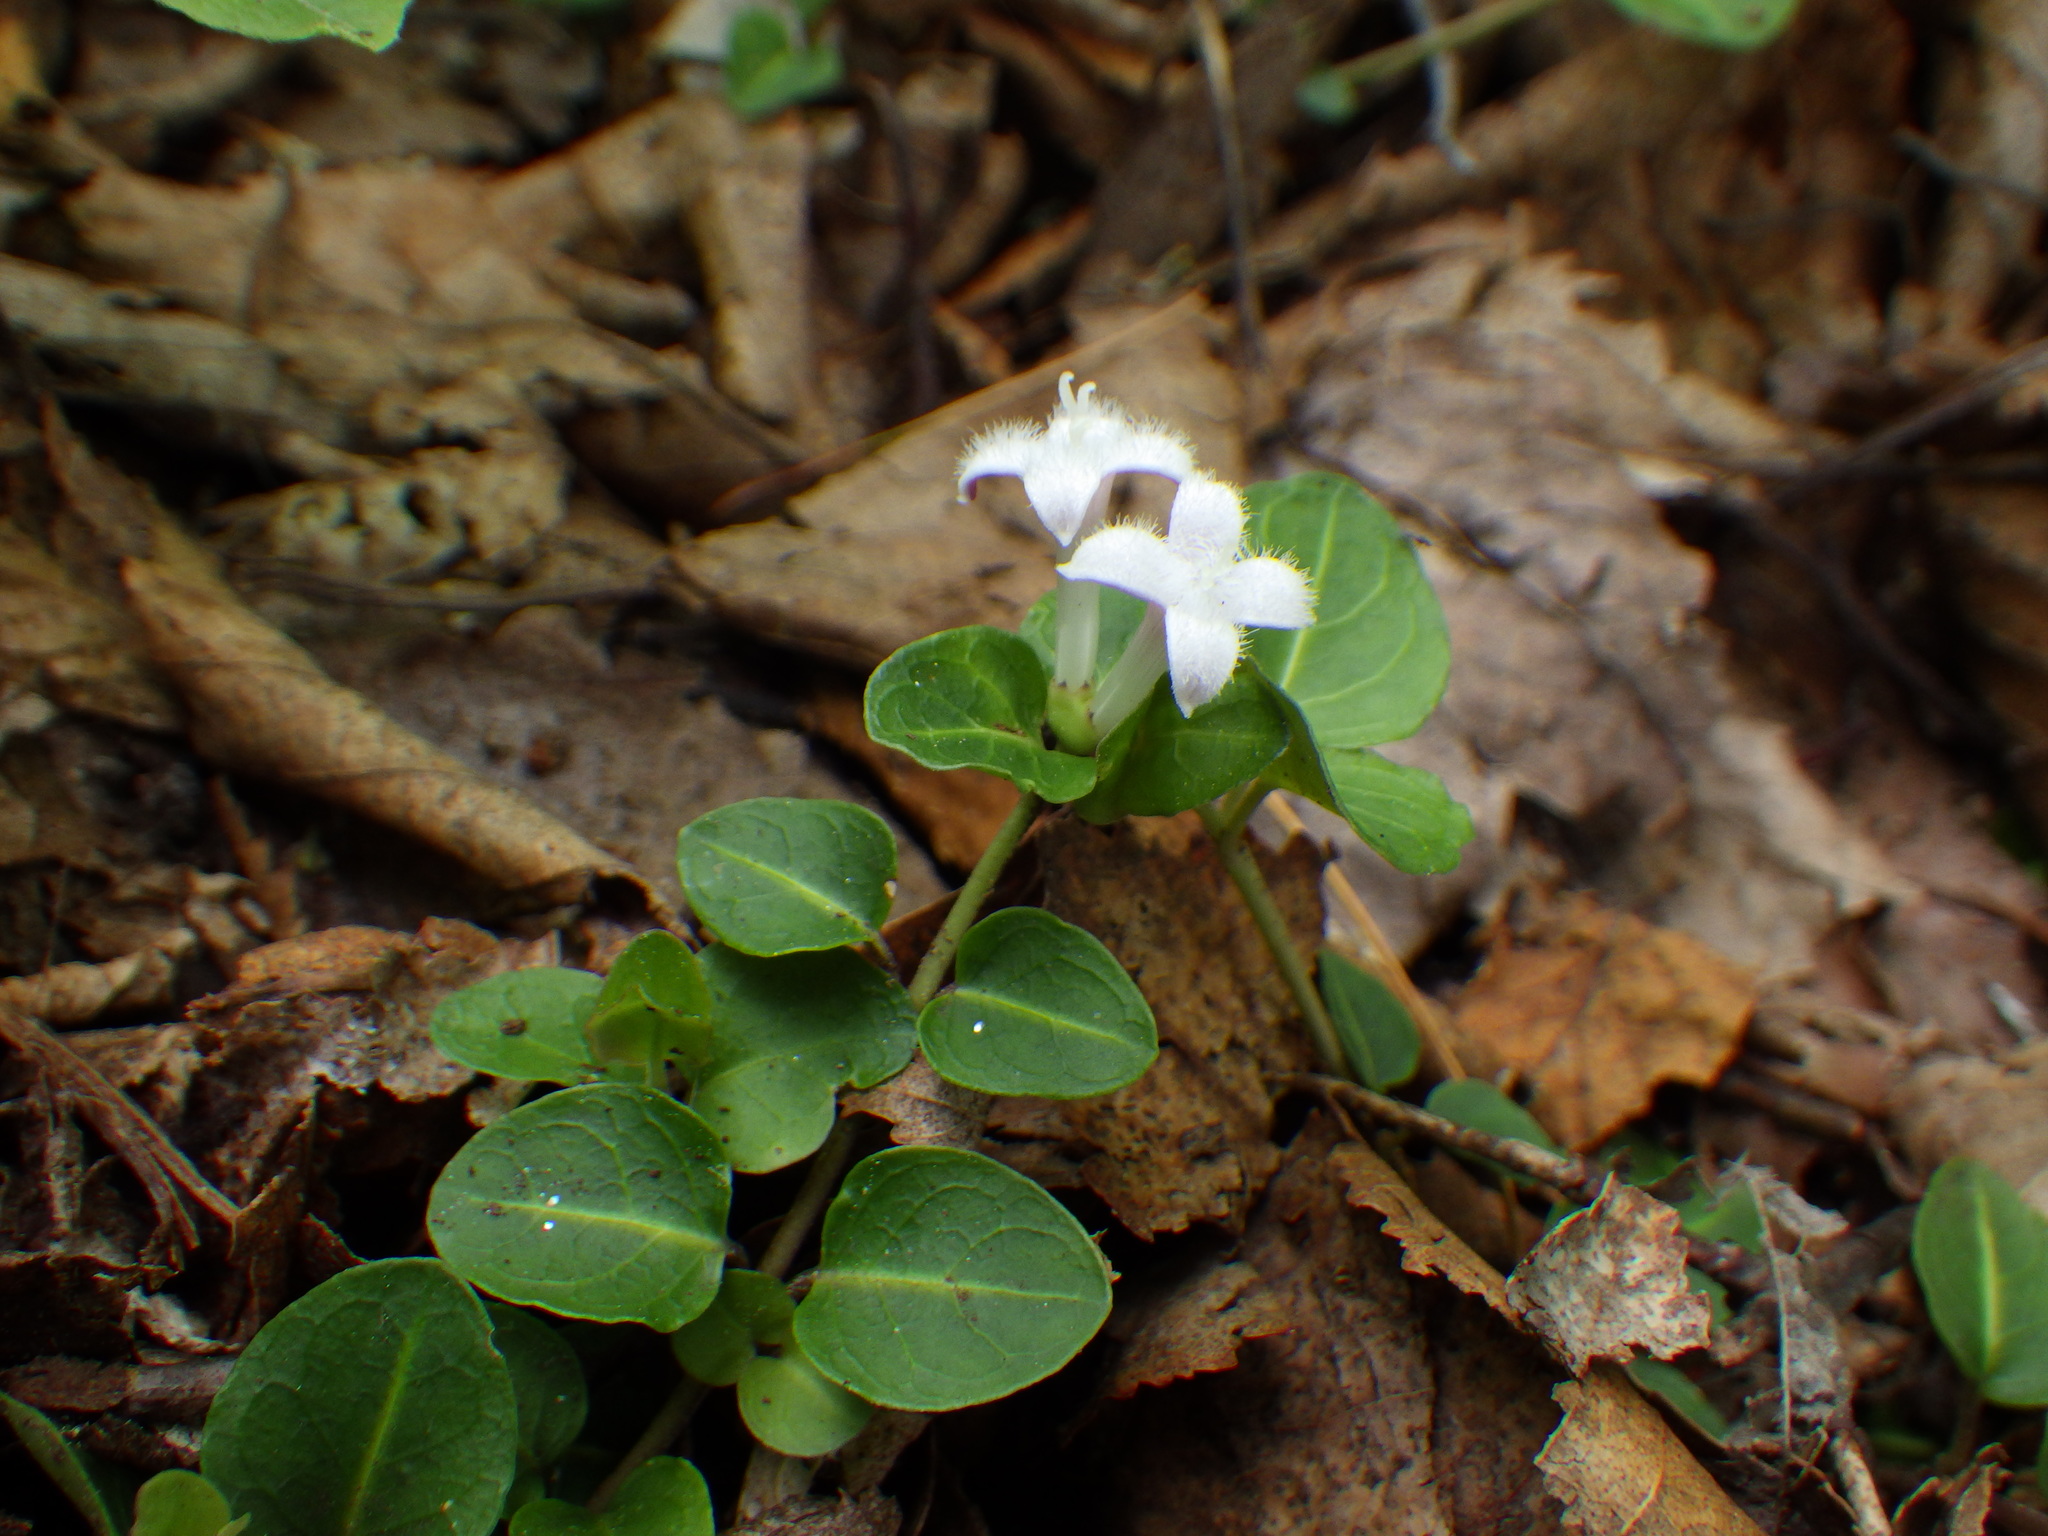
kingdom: Plantae
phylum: Tracheophyta
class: Magnoliopsida
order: Gentianales
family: Rubiaceae
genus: Mitchella
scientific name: Mitchella repens
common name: Partridge-berry
